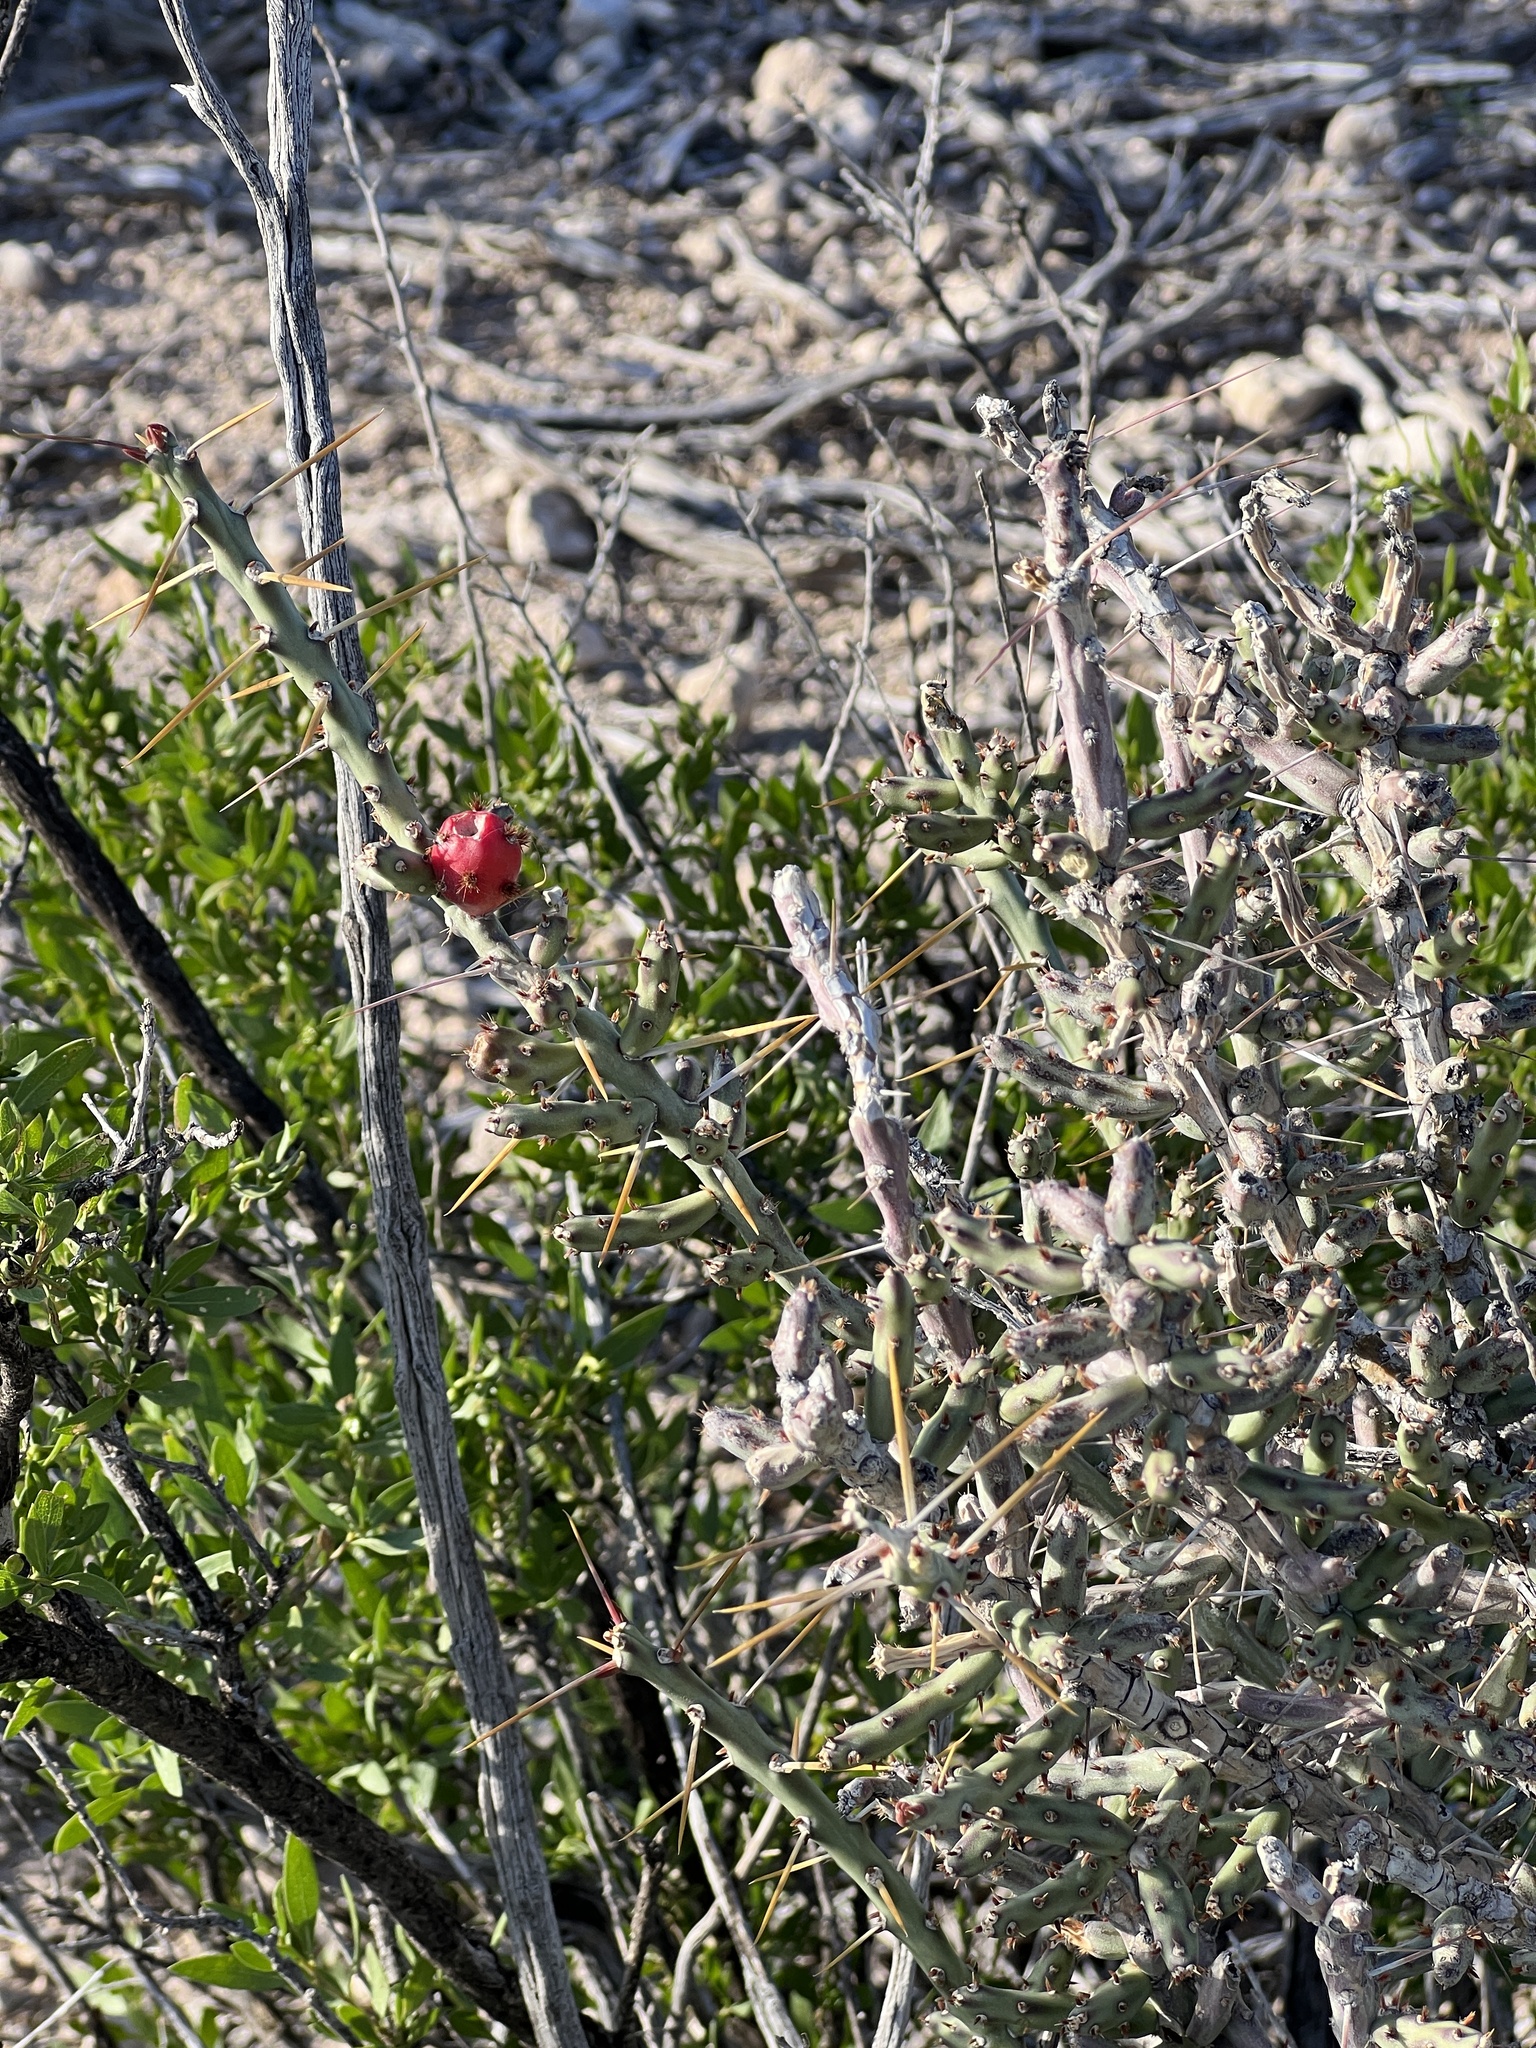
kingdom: Plantae
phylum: Tracheophyta
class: Magnoliopsida
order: Caryophyllales
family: Cactaceae
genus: Cylindropuntia
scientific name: Cylindropuntia leptocaulis
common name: Christmas cactus
